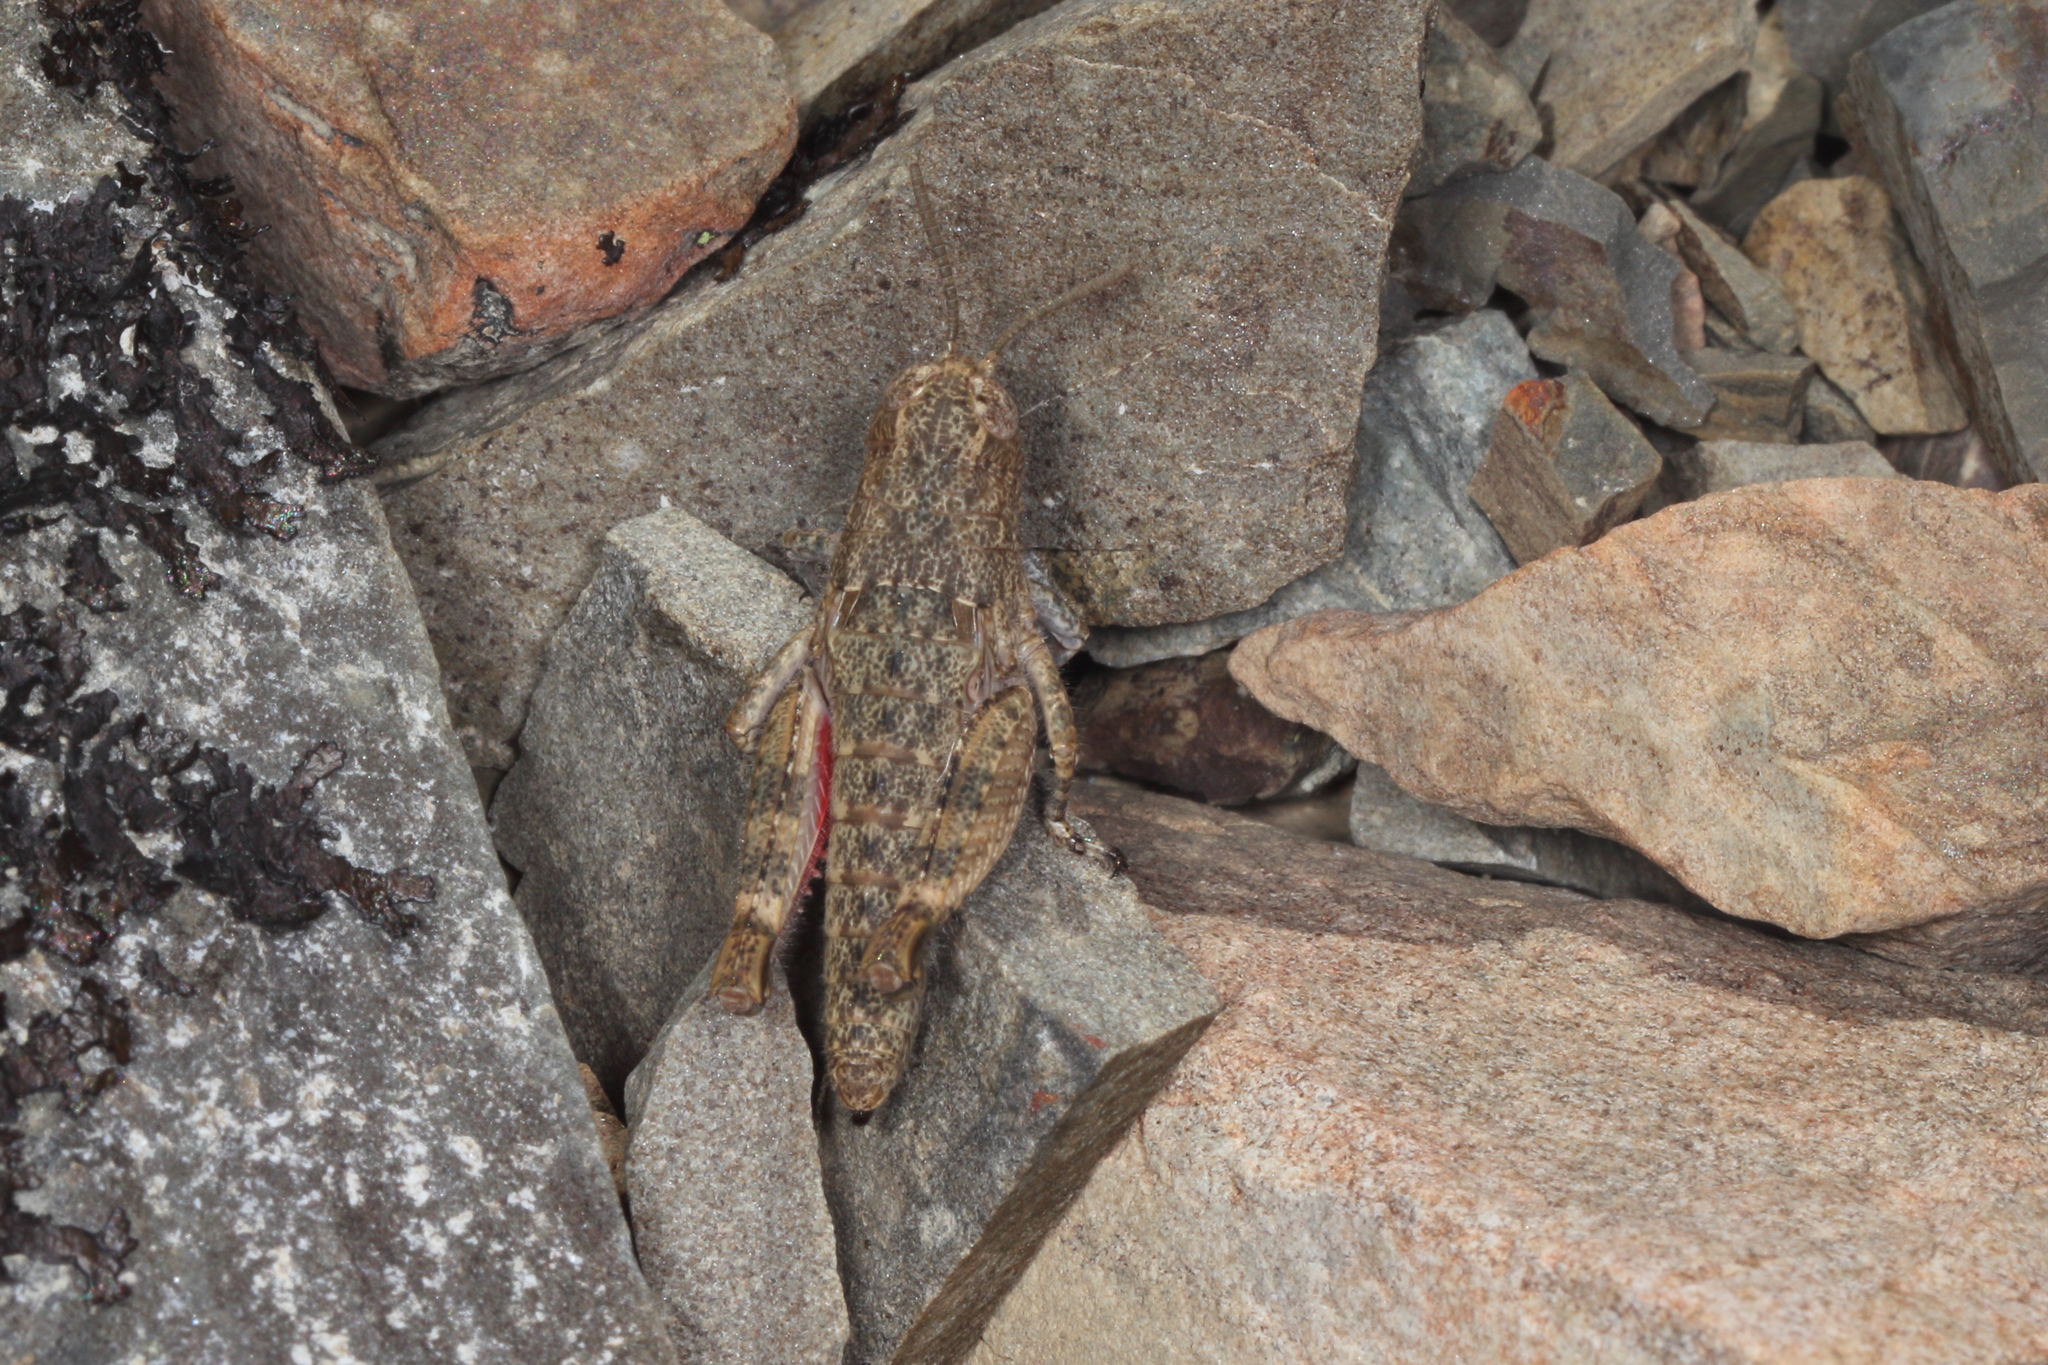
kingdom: Animalia
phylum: Arthropoda
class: Insecta
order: Orthoptera
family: Acrididae
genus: Sigaus
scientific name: Sigaus
